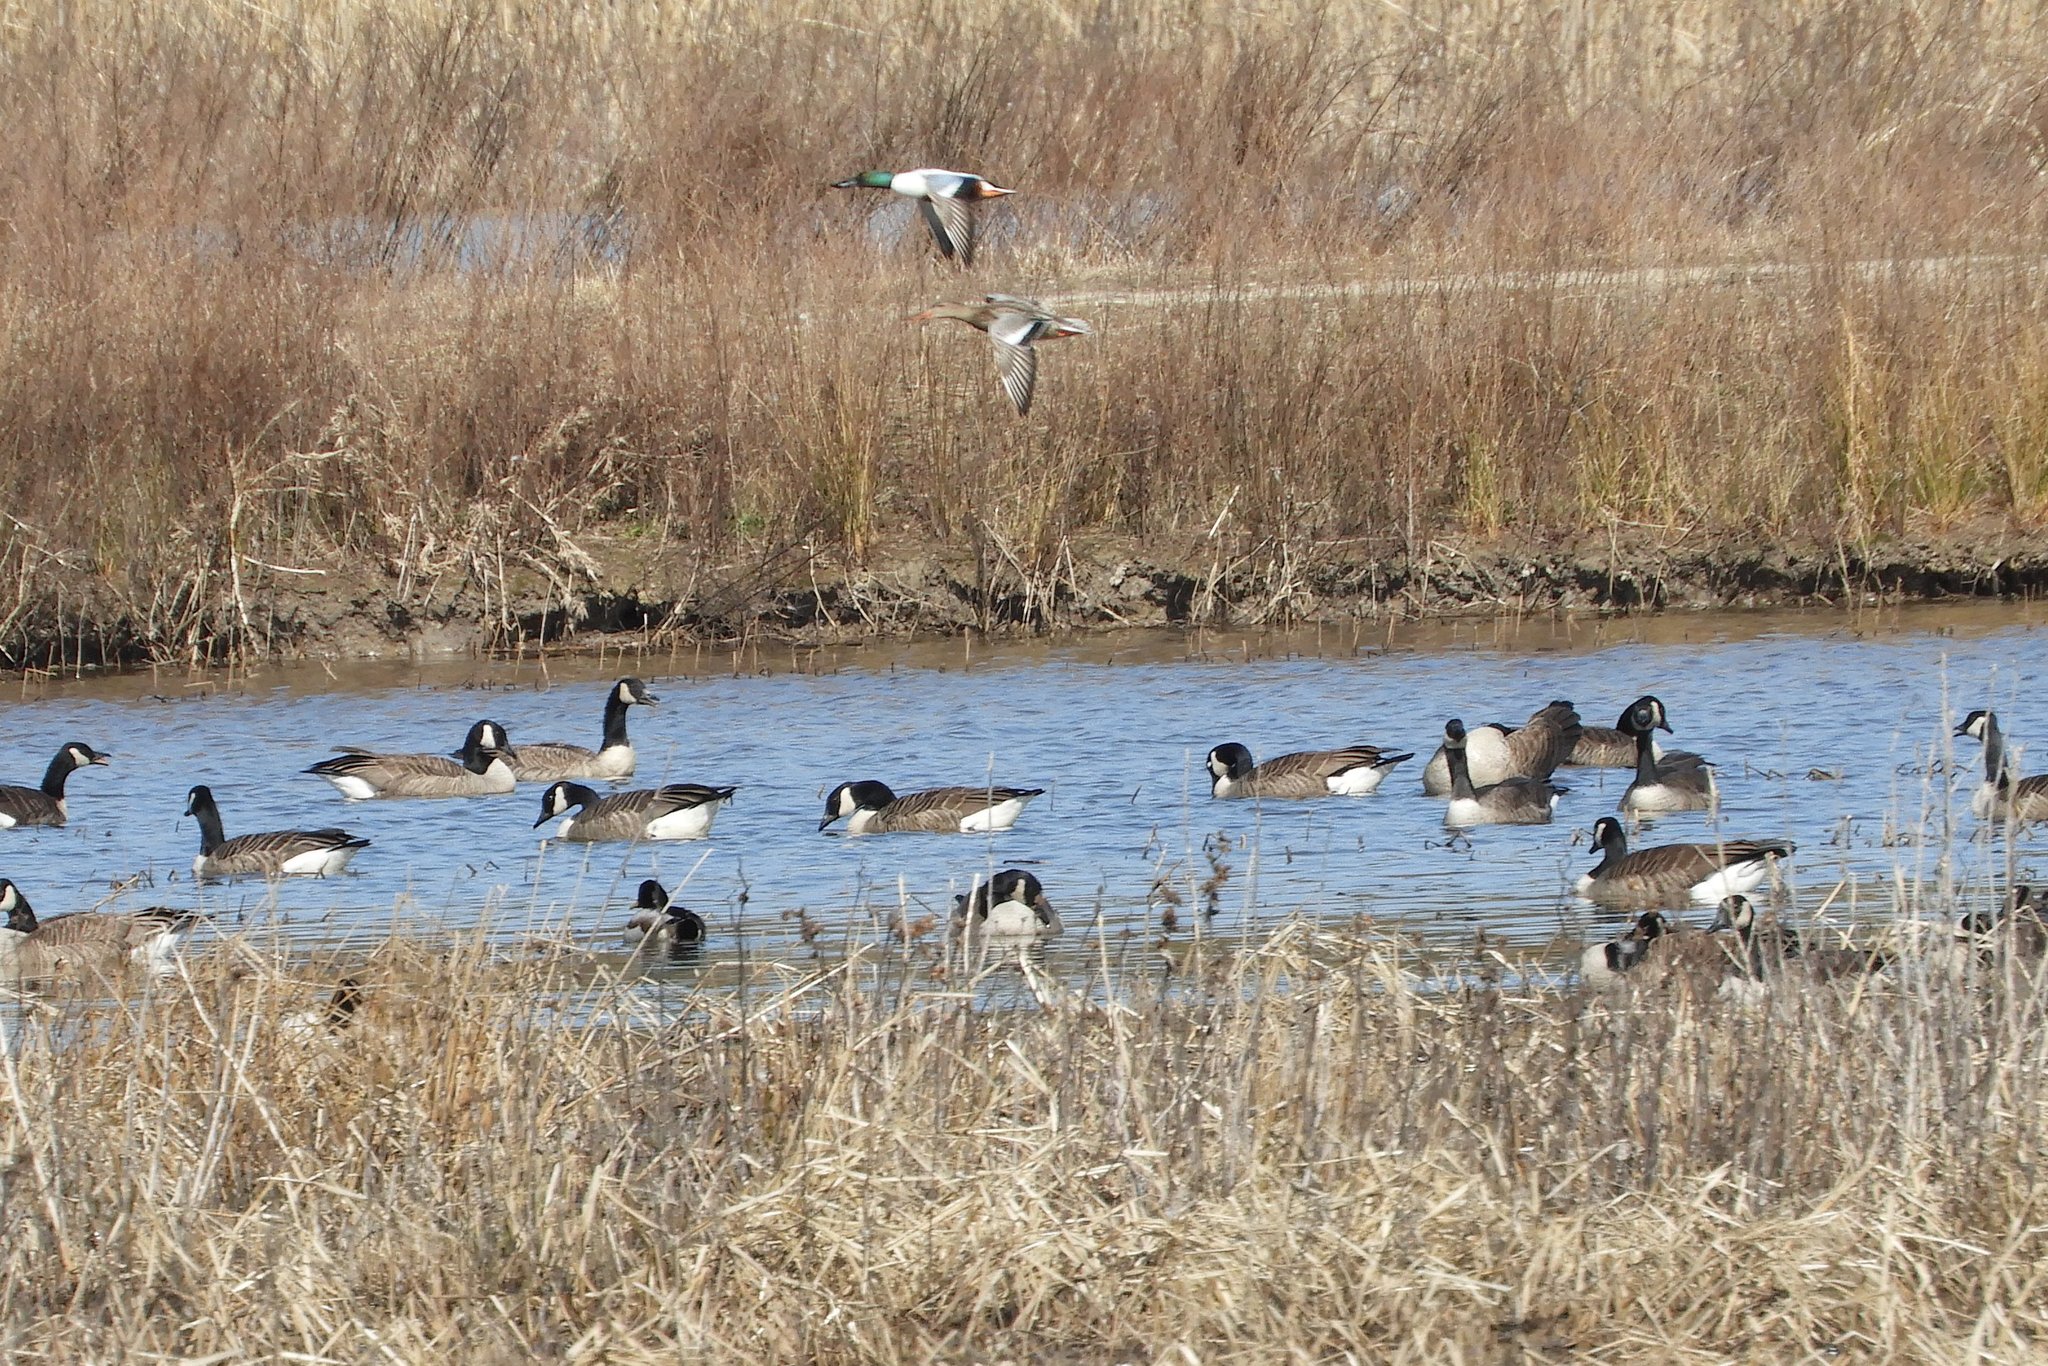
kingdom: Animalia
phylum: Chordata
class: Aves
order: Anseriformes
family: Anatidae
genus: Spatula
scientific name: Spatula clypeata
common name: Northern shoveler
